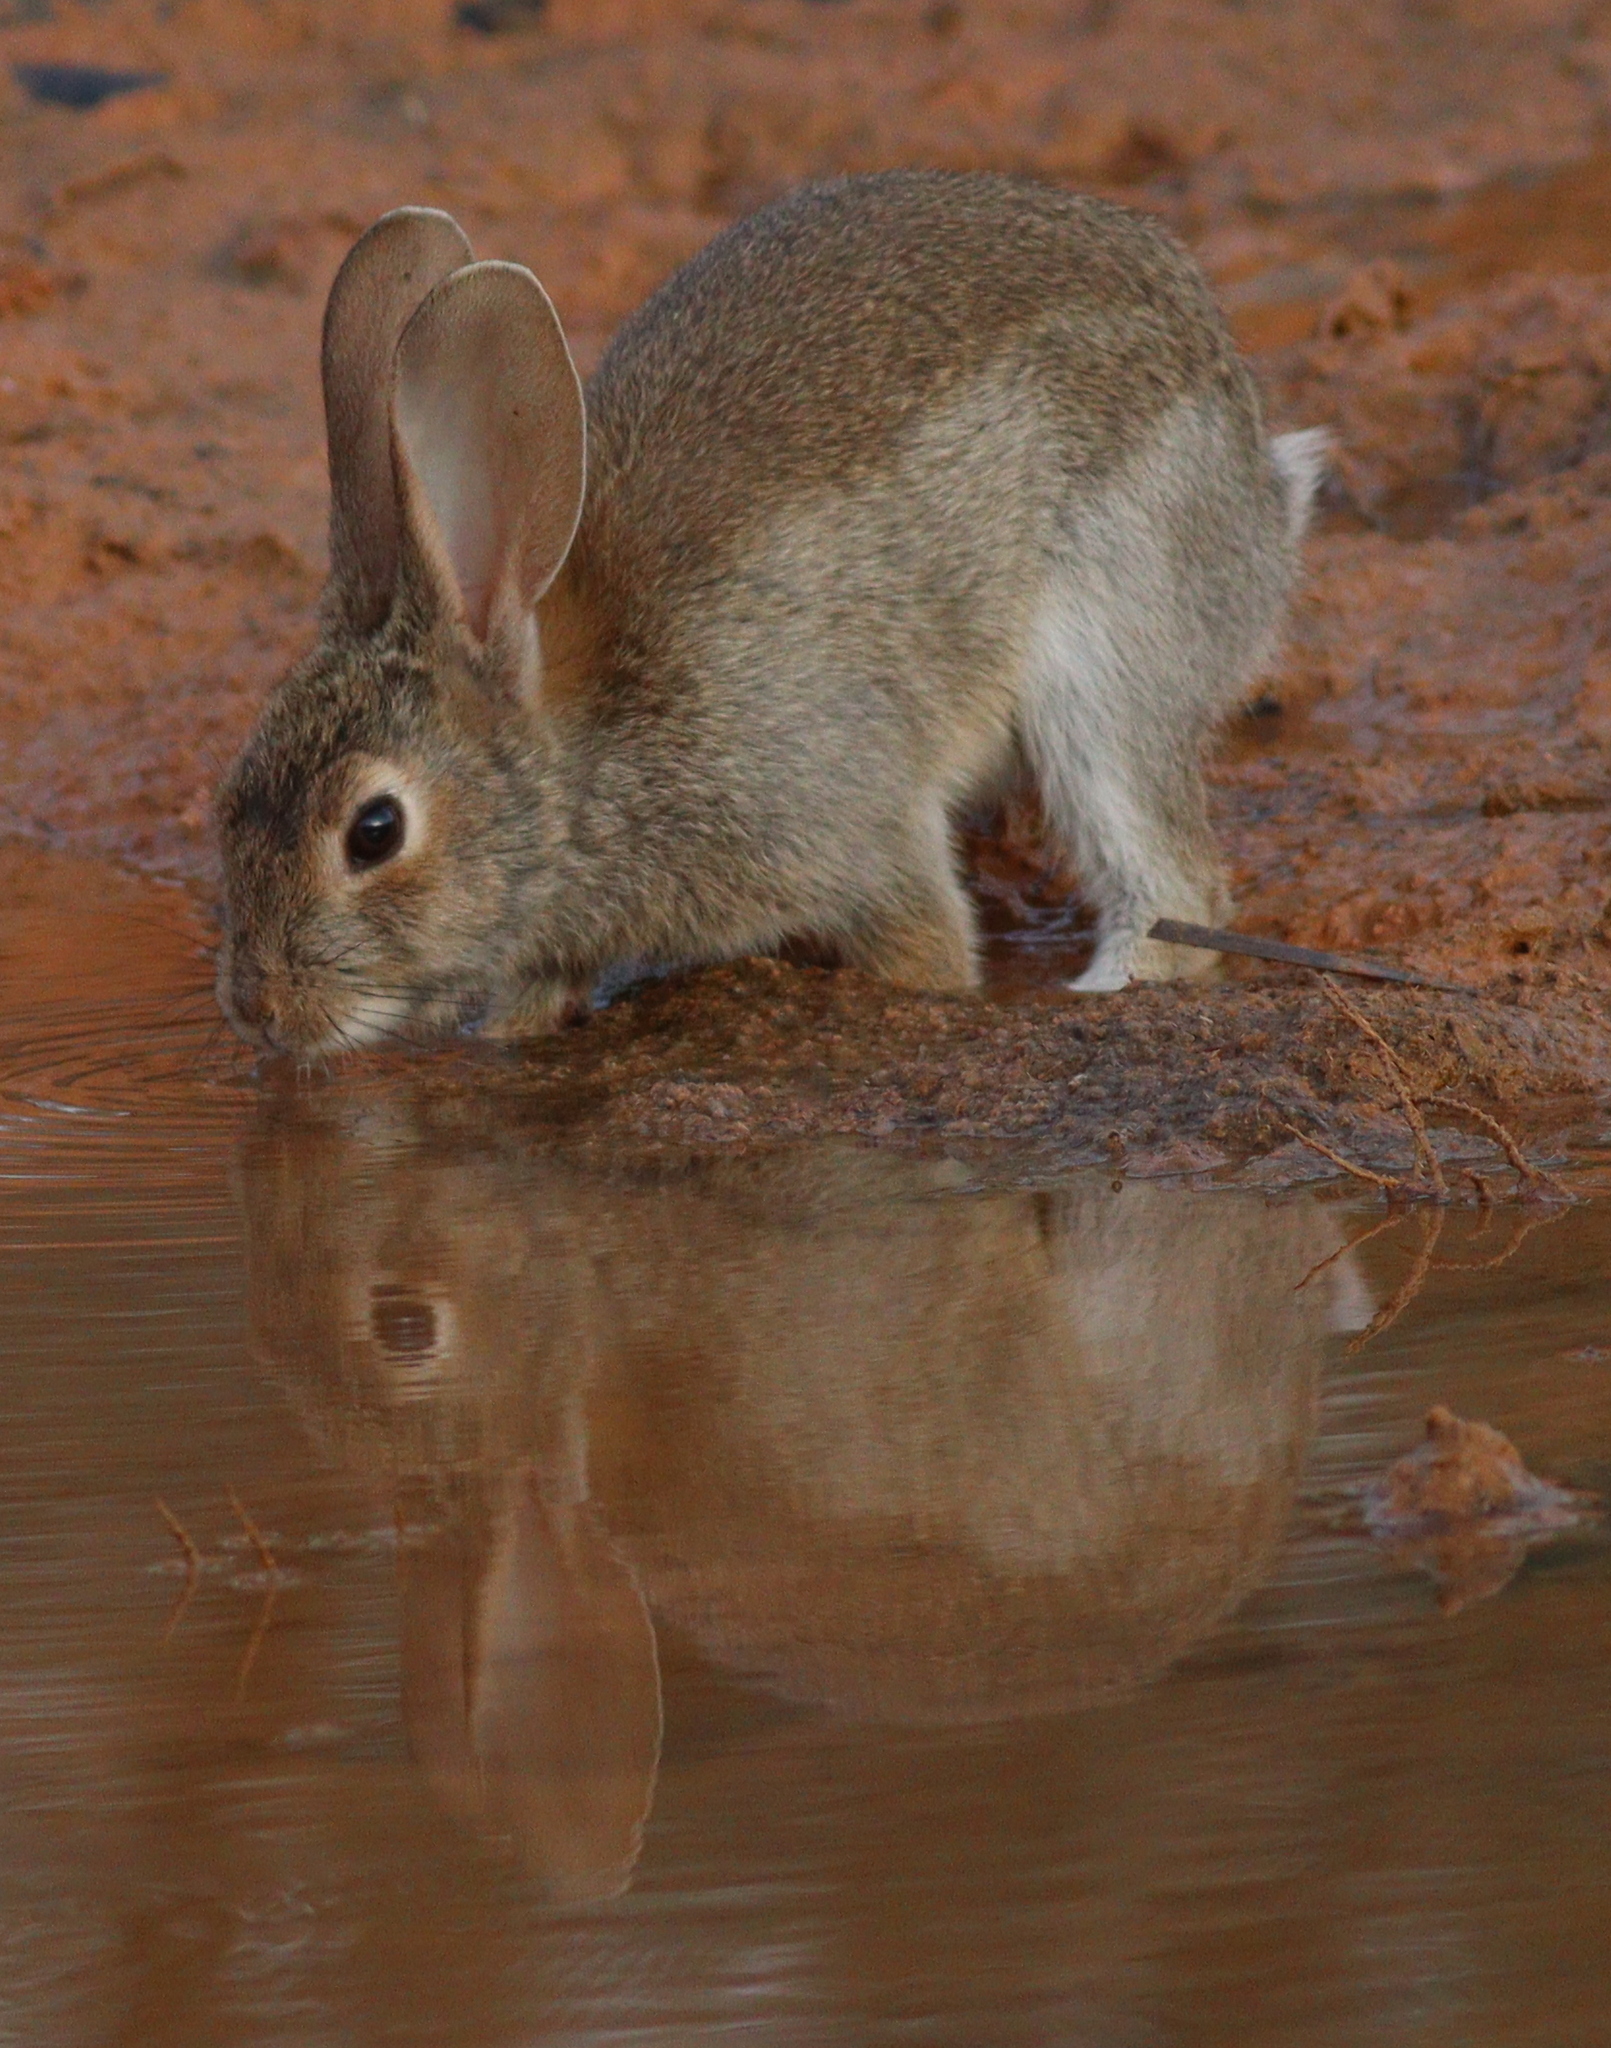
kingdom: Animalia
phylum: Chordata
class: Mammalia
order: Lagomorpha
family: Leporidae
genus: Oryctolagus
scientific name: Oryctolagus cuniculus
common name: European rabbit
